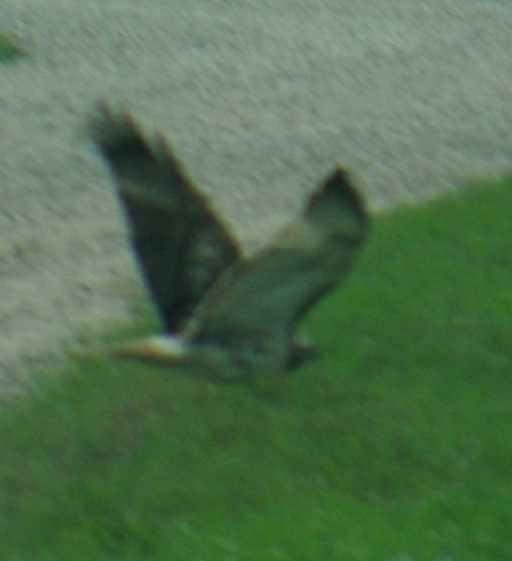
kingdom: Animalia
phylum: Chordata
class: Aves
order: Accipitriformes
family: Accipitridae
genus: Buteo
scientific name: Buteo jamaicensis
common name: Red-tailed hawk
